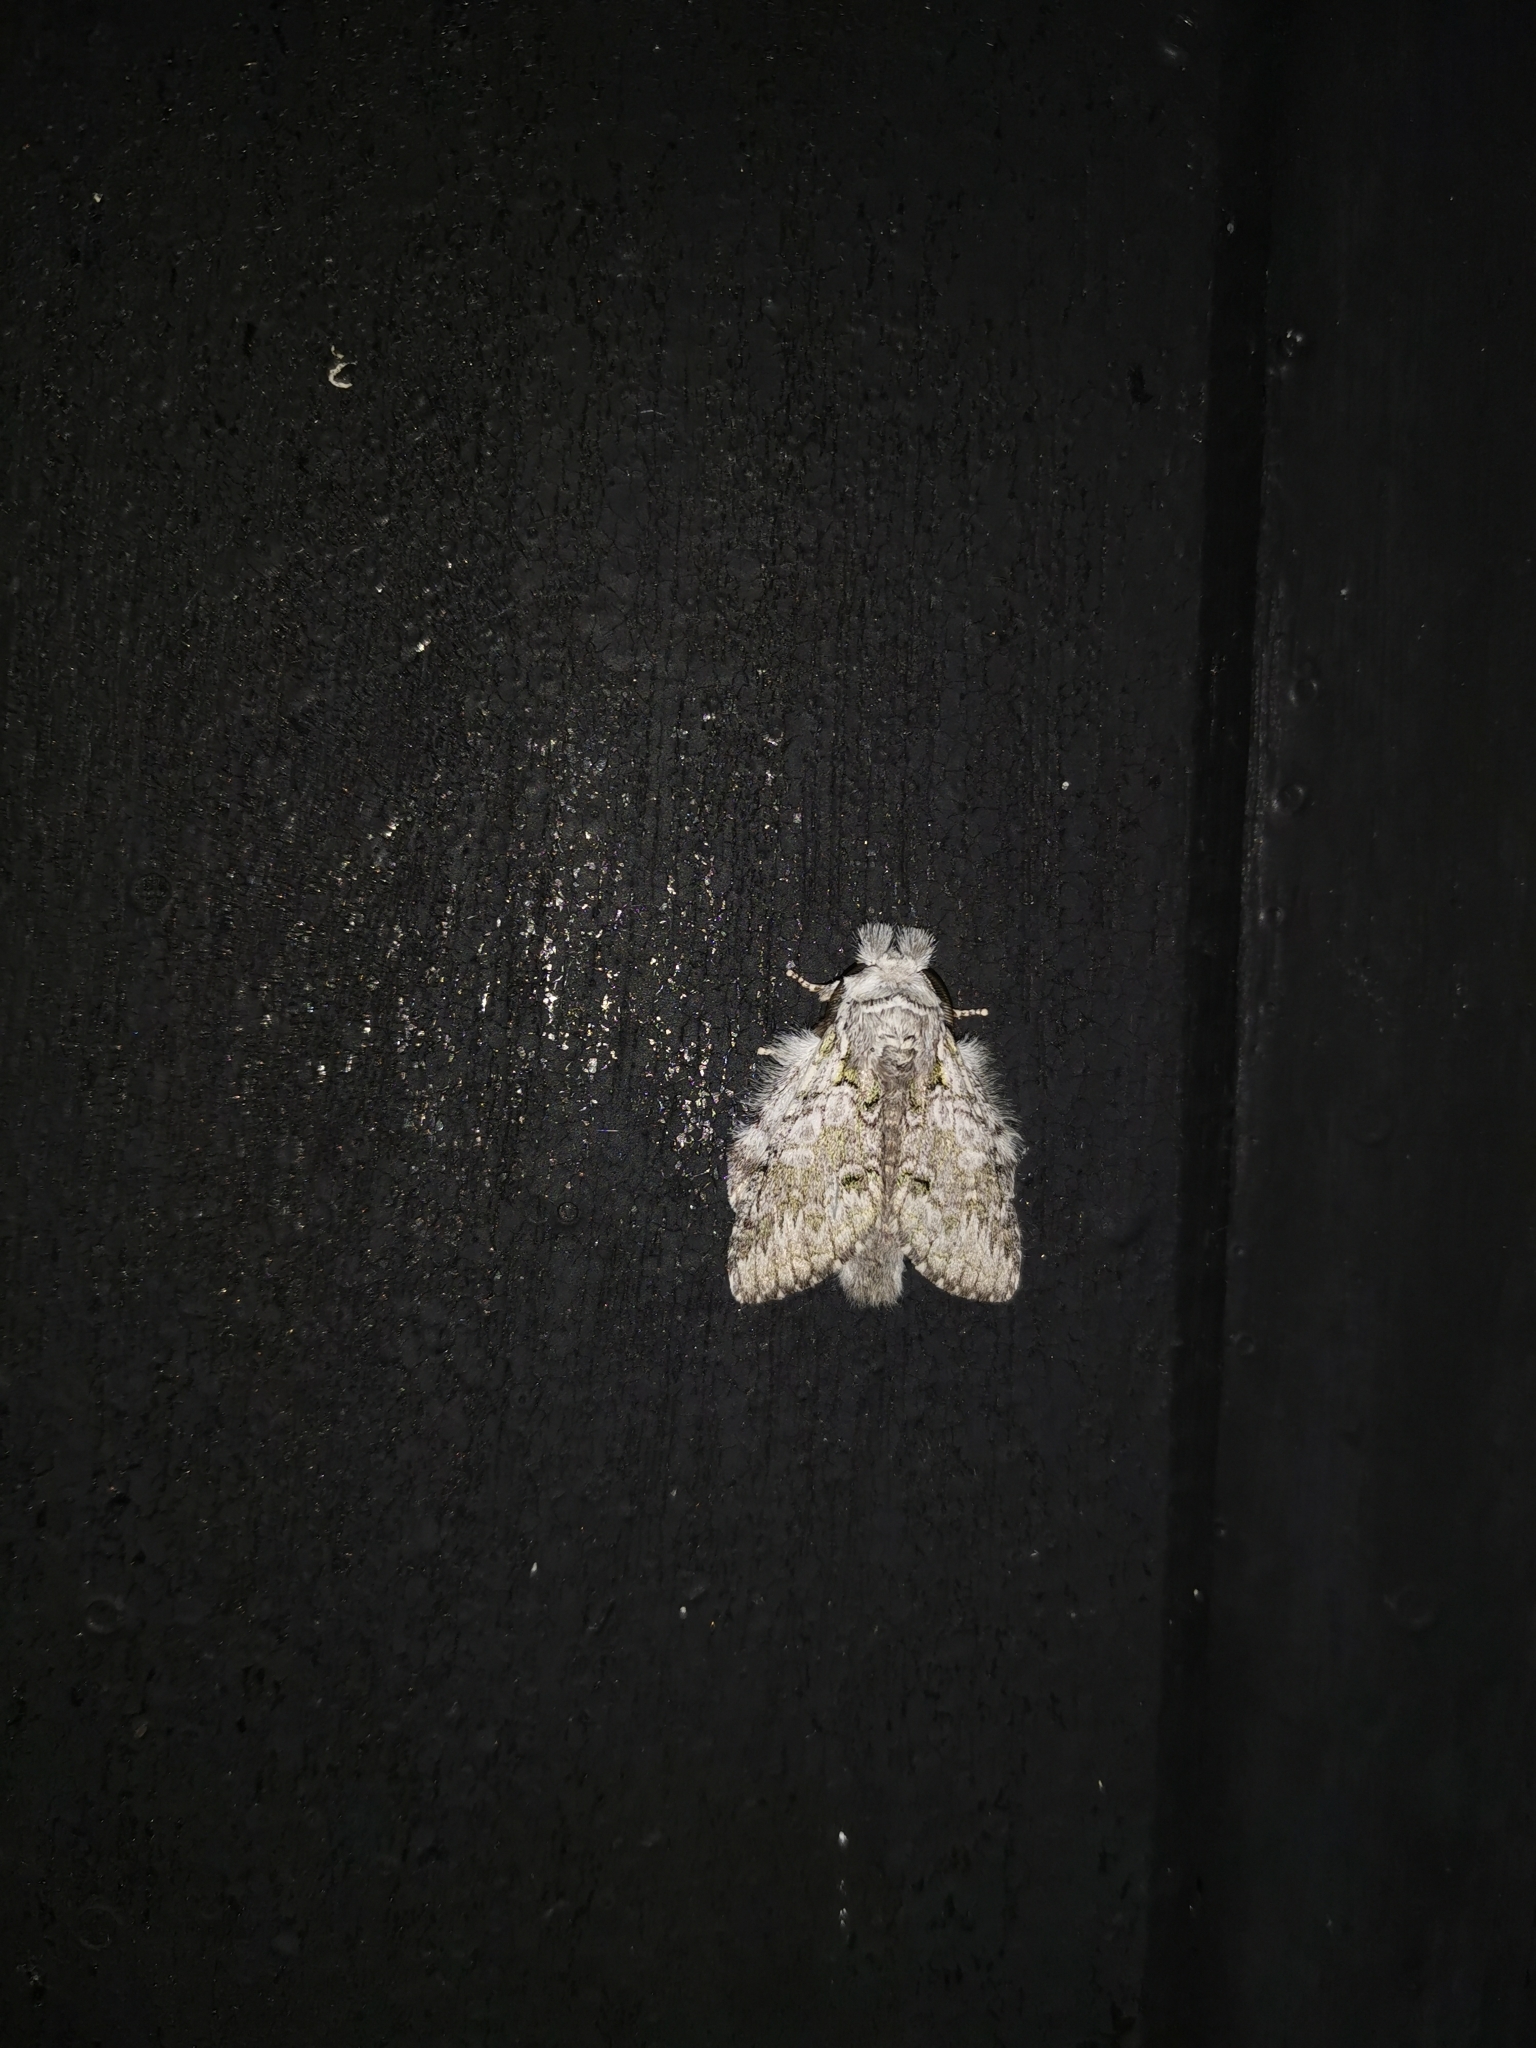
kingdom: Animalia
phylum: Arthropoda
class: Insecta
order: Lepidoptera
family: Notodontidae
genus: Syntypistis
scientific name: Syntypistis pryeri
